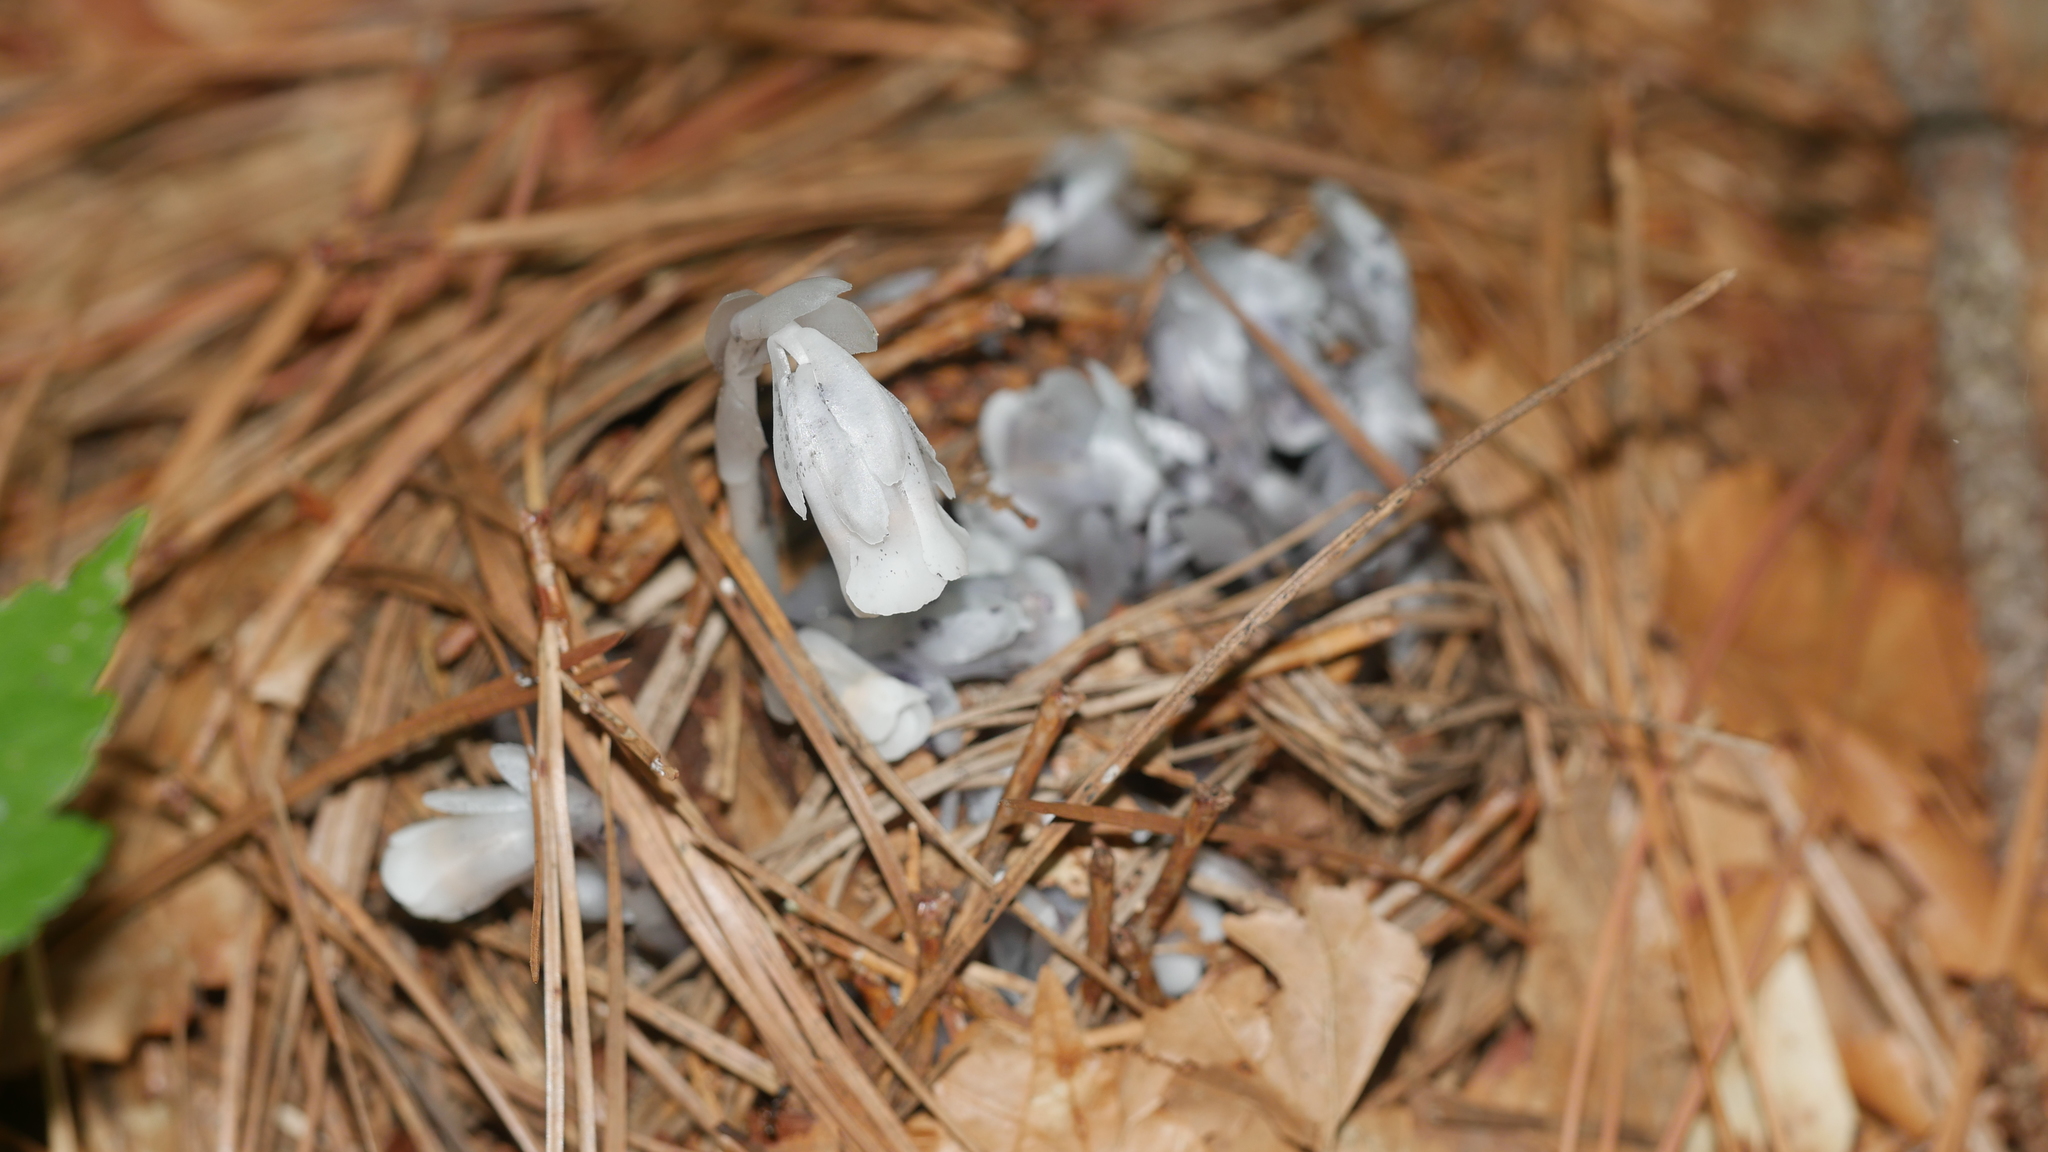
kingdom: Plantae
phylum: Tracheophyta
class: Magnoliopsida
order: Ericales
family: Ericaceae
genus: Monotropa
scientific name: Monotropa uniflora
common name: Convulsion root
